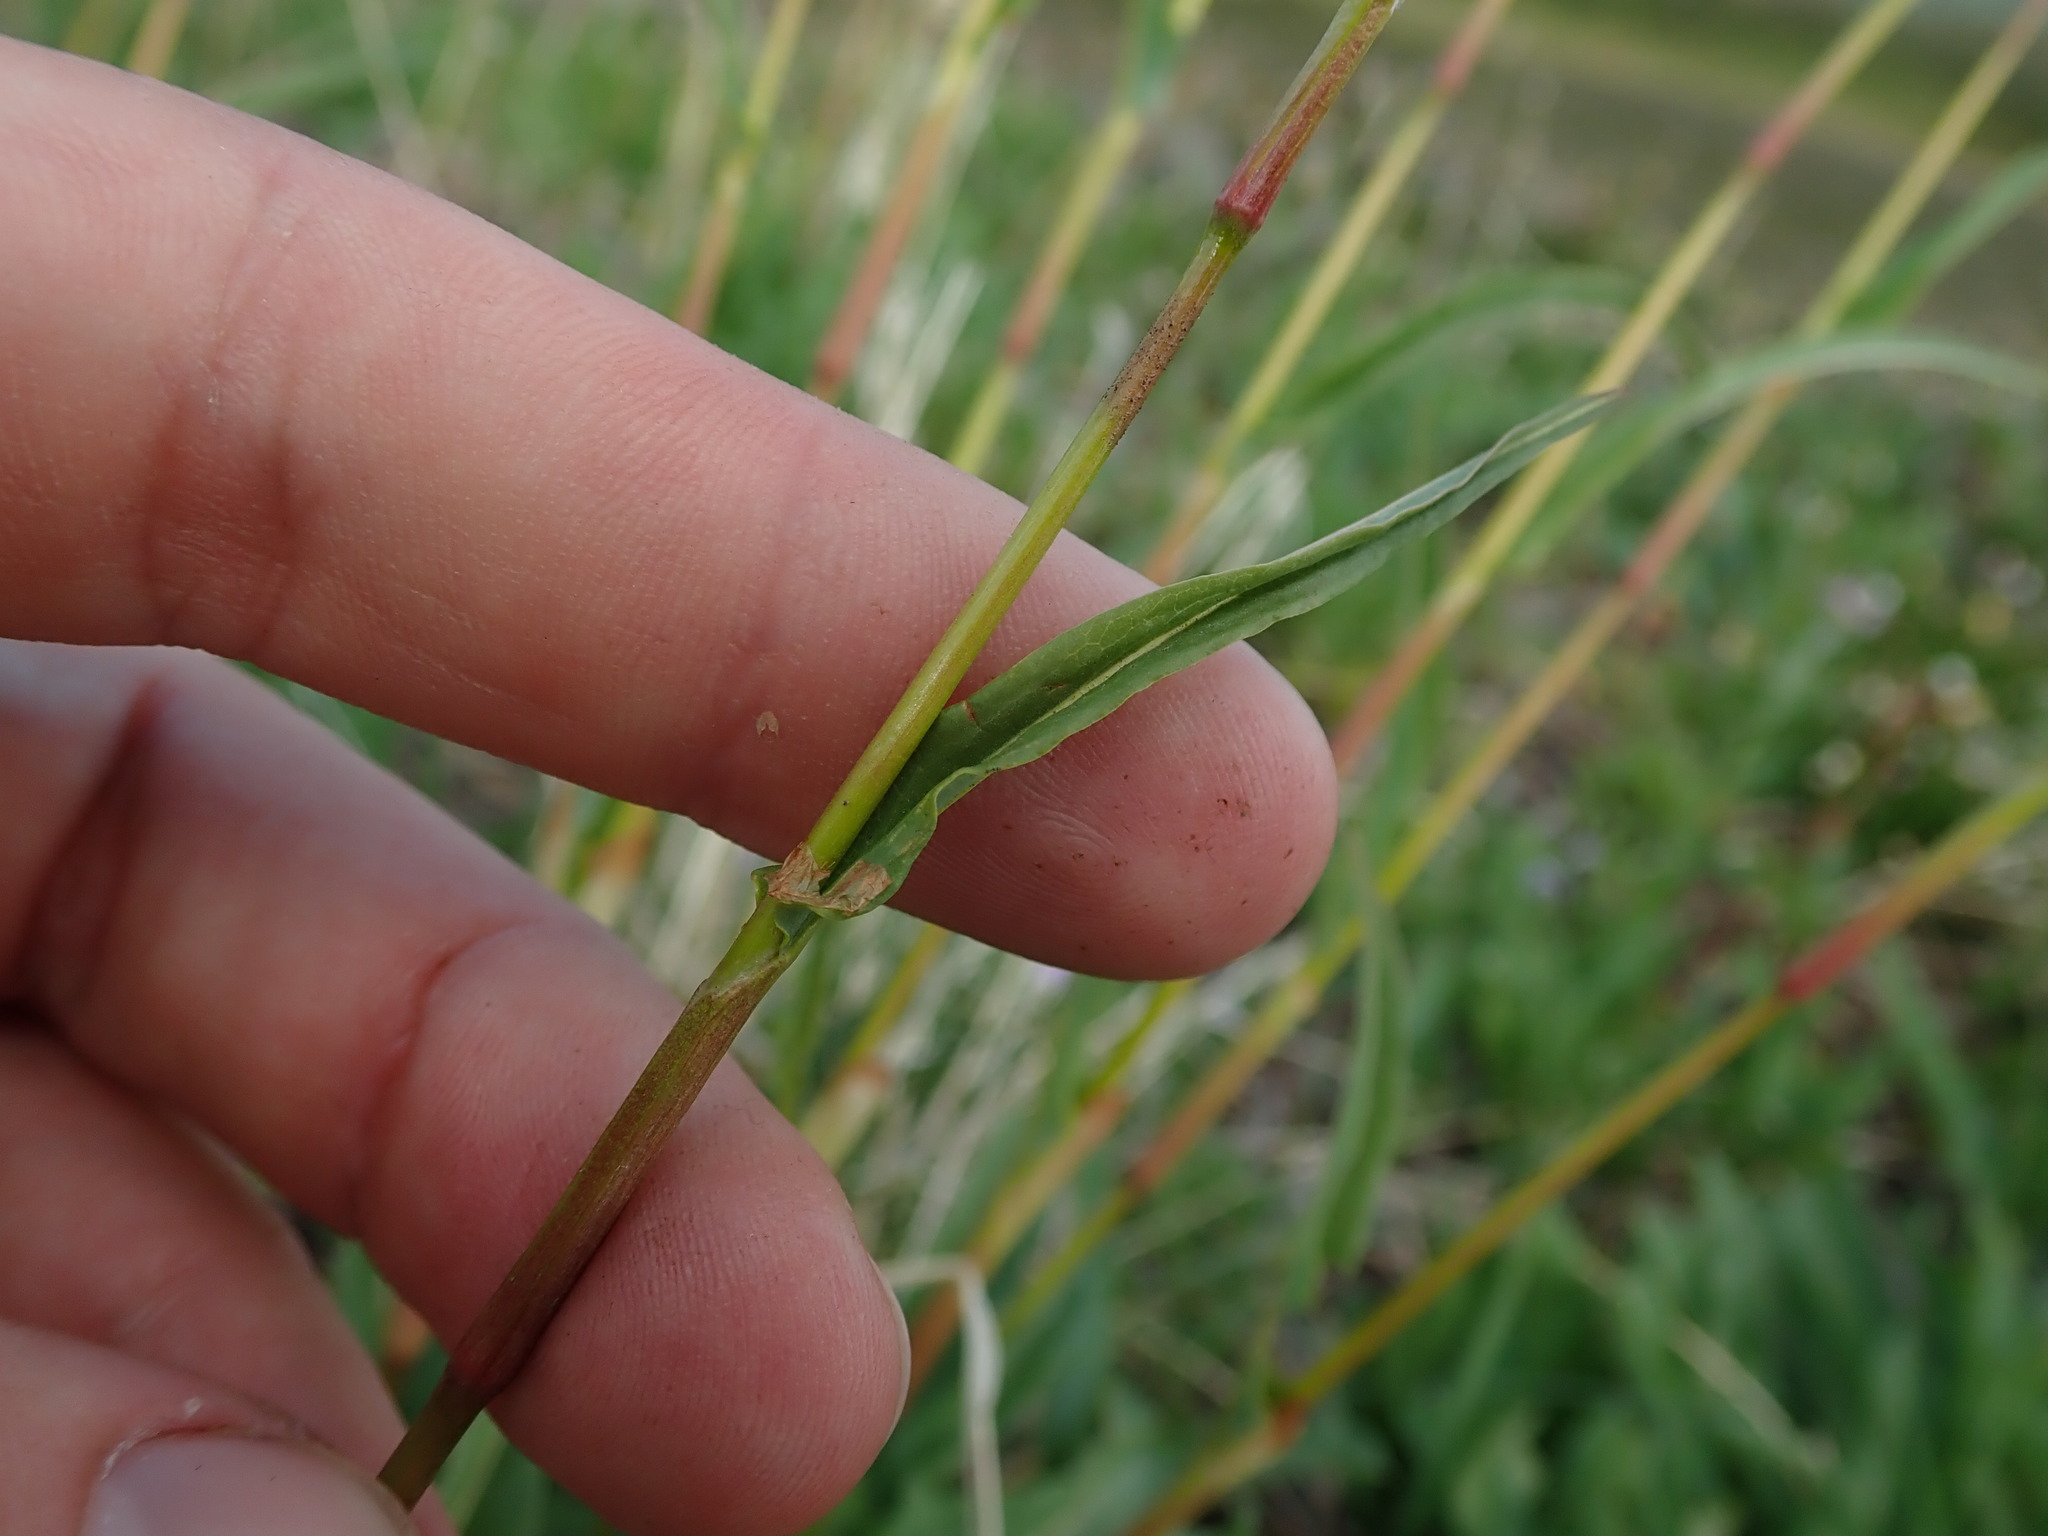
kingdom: Plantae
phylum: Tracheophyta
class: Magnoliopsida
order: Caryophyllales
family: Polygonaceae
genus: Bistorta
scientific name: Bistorta bistortoides
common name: American bistort
